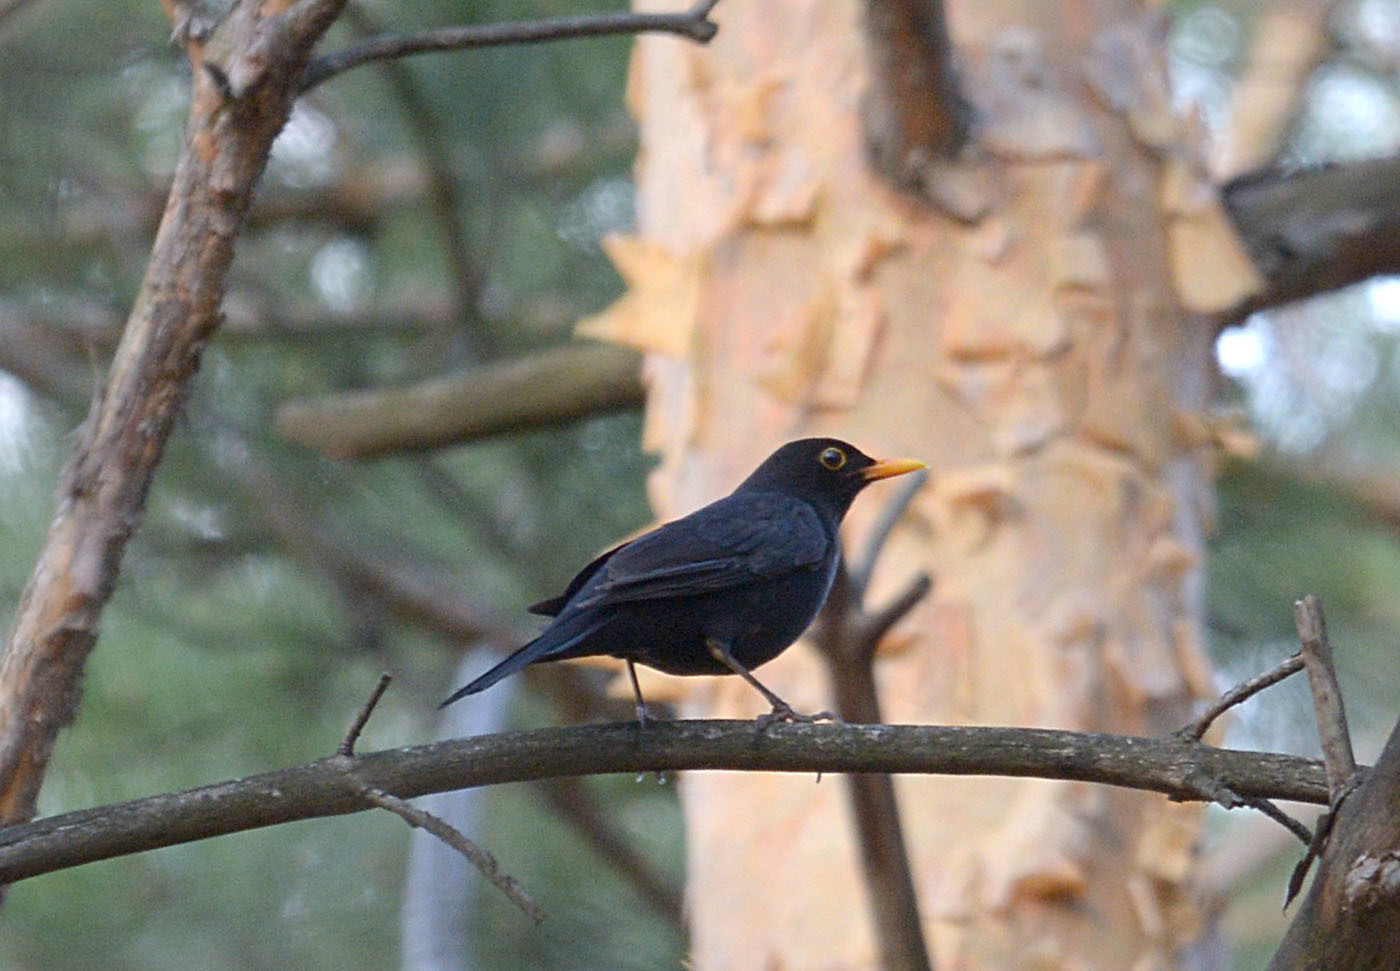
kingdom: Animalia
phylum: Chordata
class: Aves
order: Passeriformes
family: Turdidae
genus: Turdus
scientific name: Turdus merula
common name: Common blackbird
